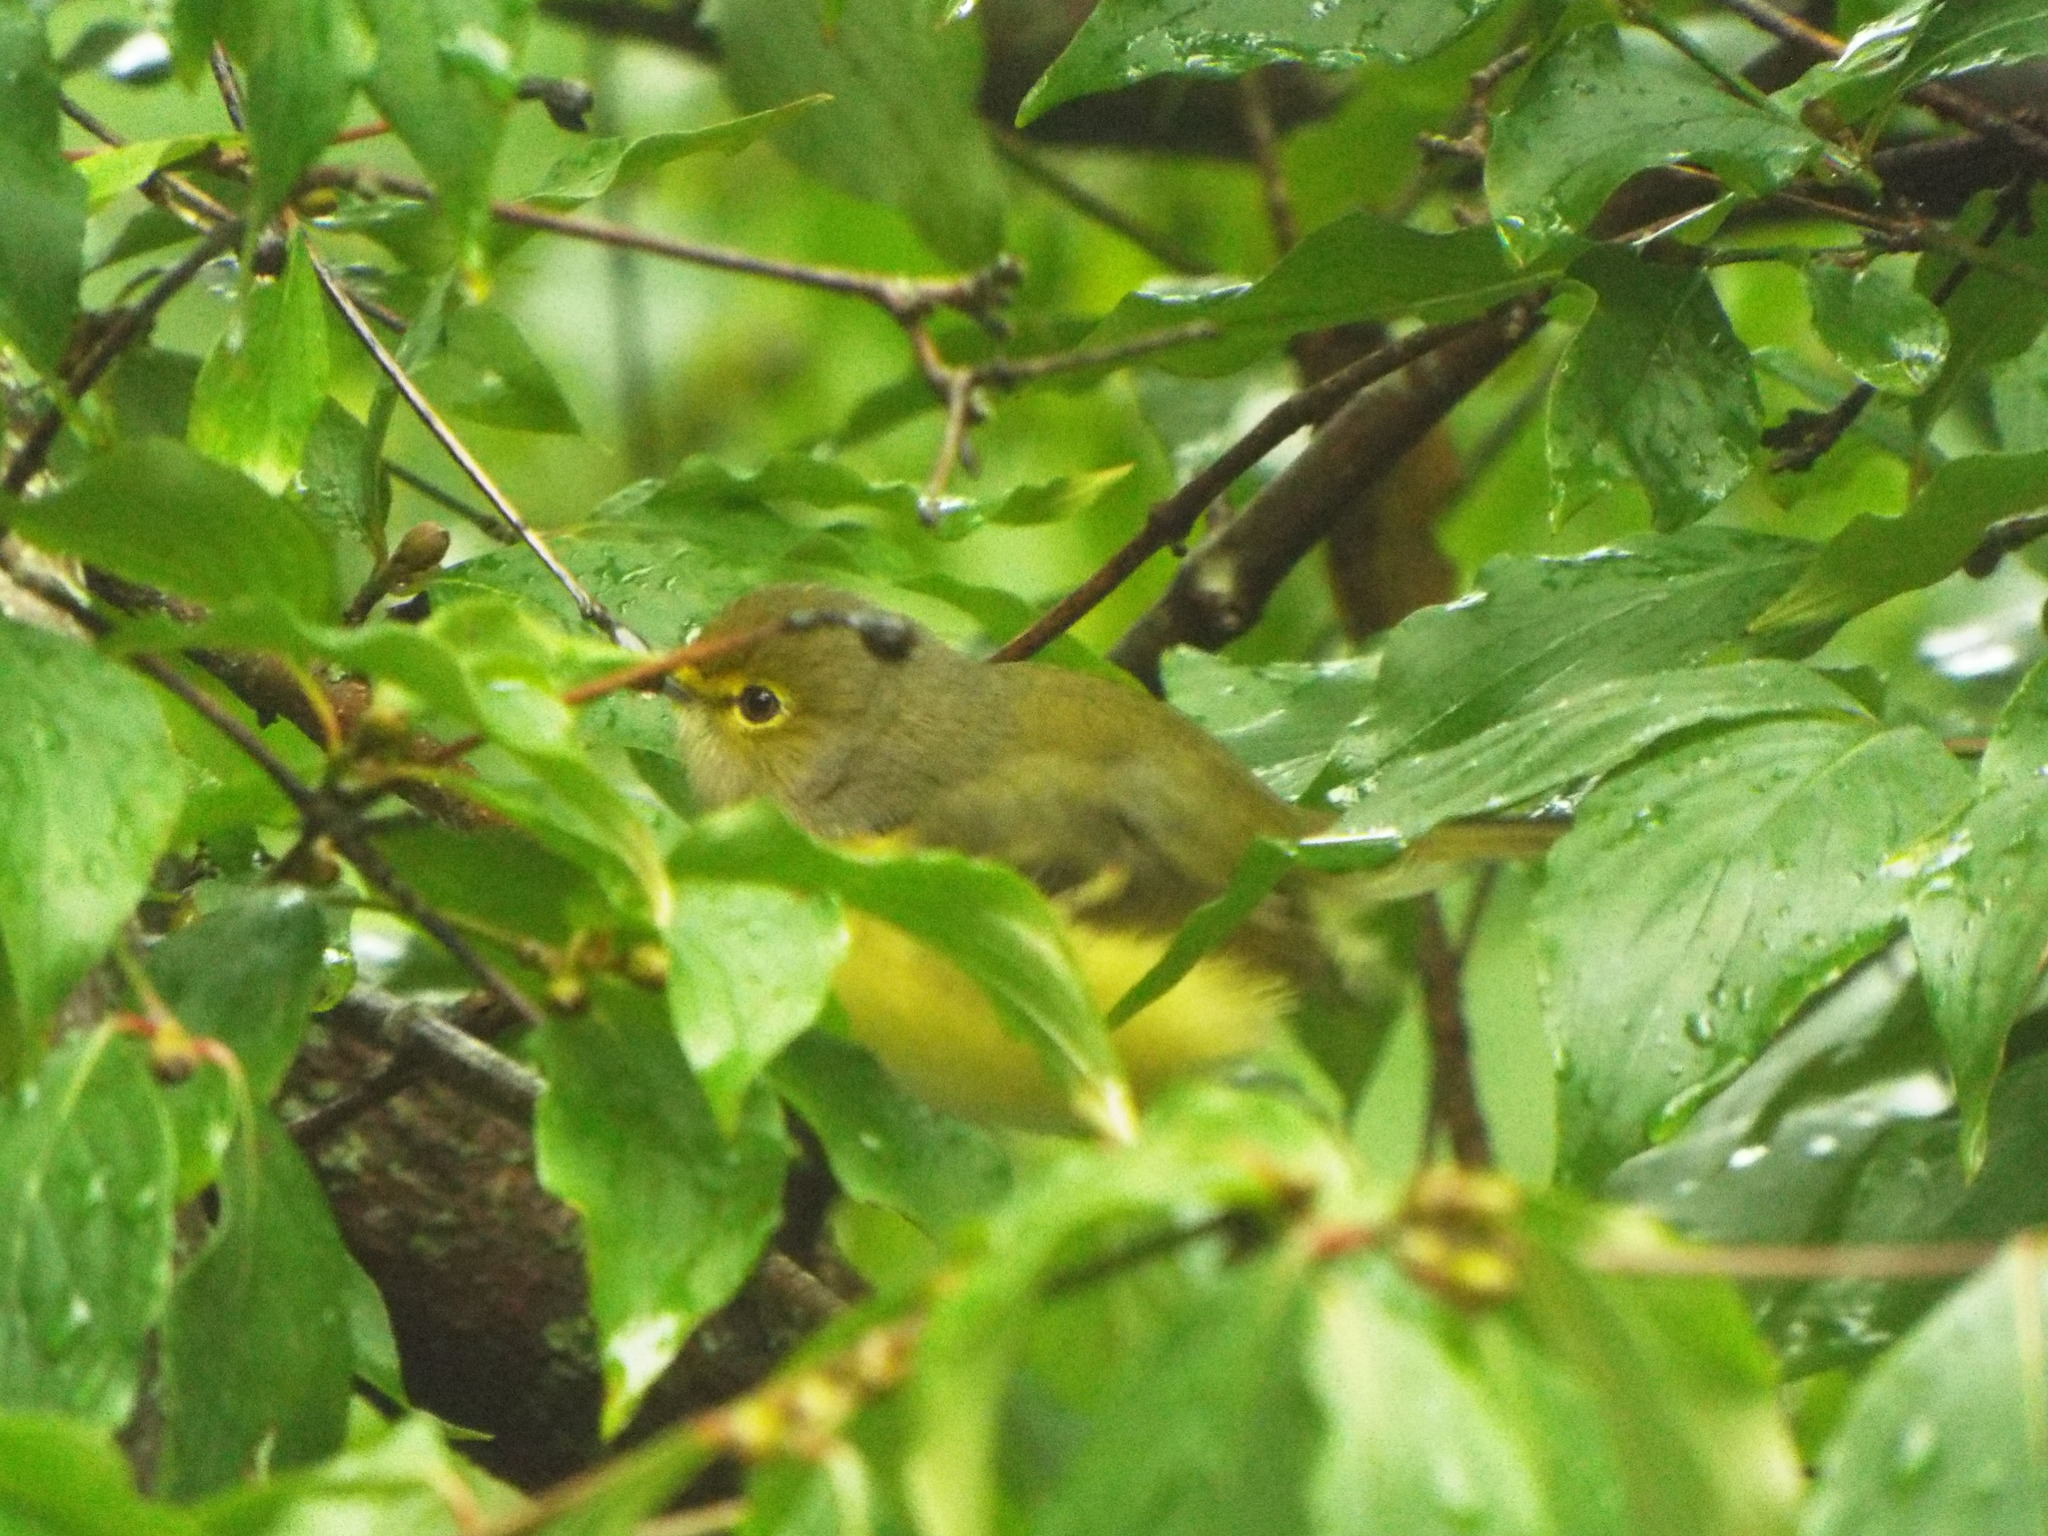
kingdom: Animalia
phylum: Chordata
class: Aves
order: Passeriformes
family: Vireonidae
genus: Vireo
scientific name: Vireo griseus
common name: White-eyed vireo
